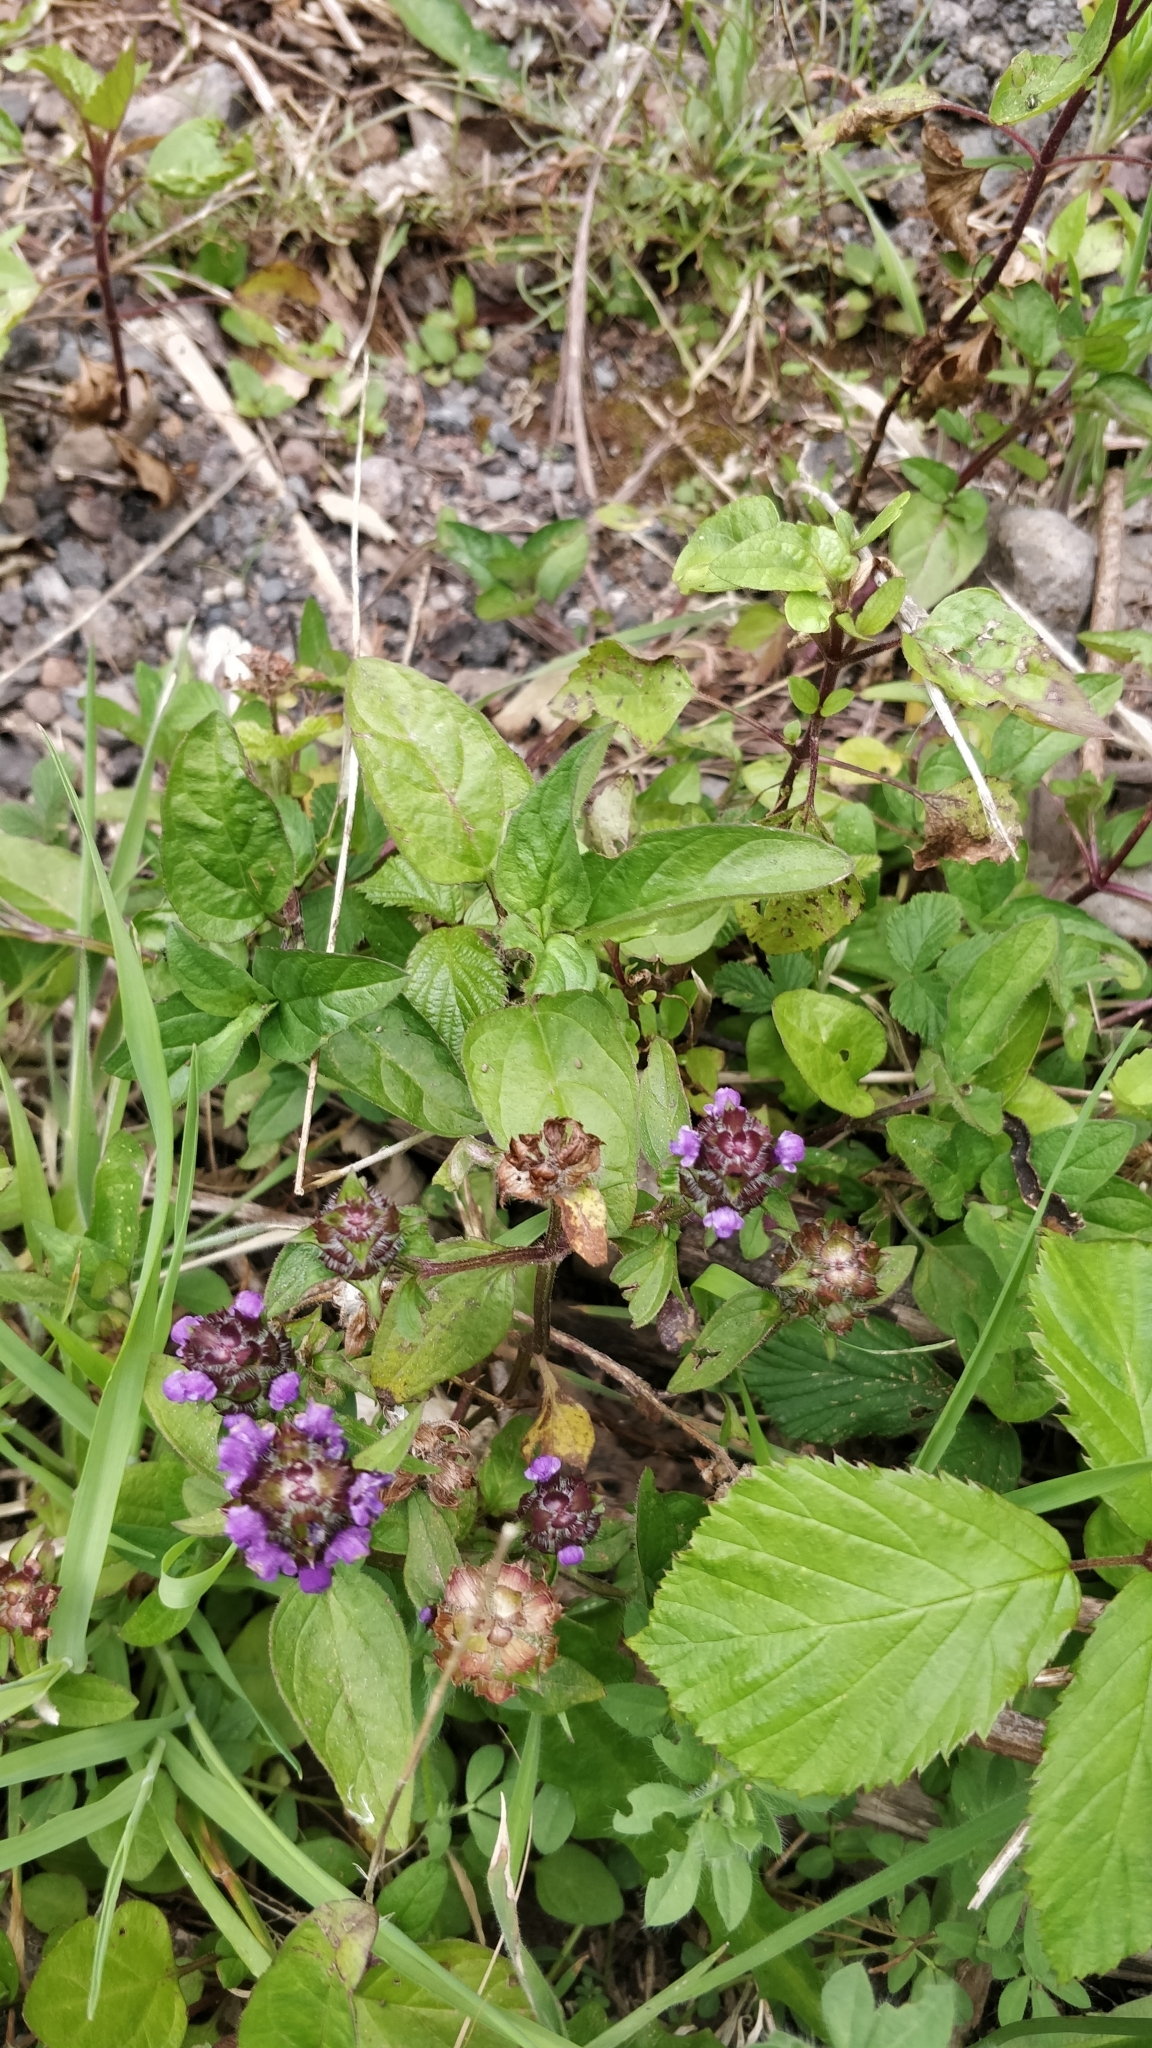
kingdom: Plantae
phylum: Tracheophyta
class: Magnoliopsida
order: Lamiales
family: Lamiaceae
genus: Prunella
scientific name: Prunella vulgaris
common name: Heal-all
